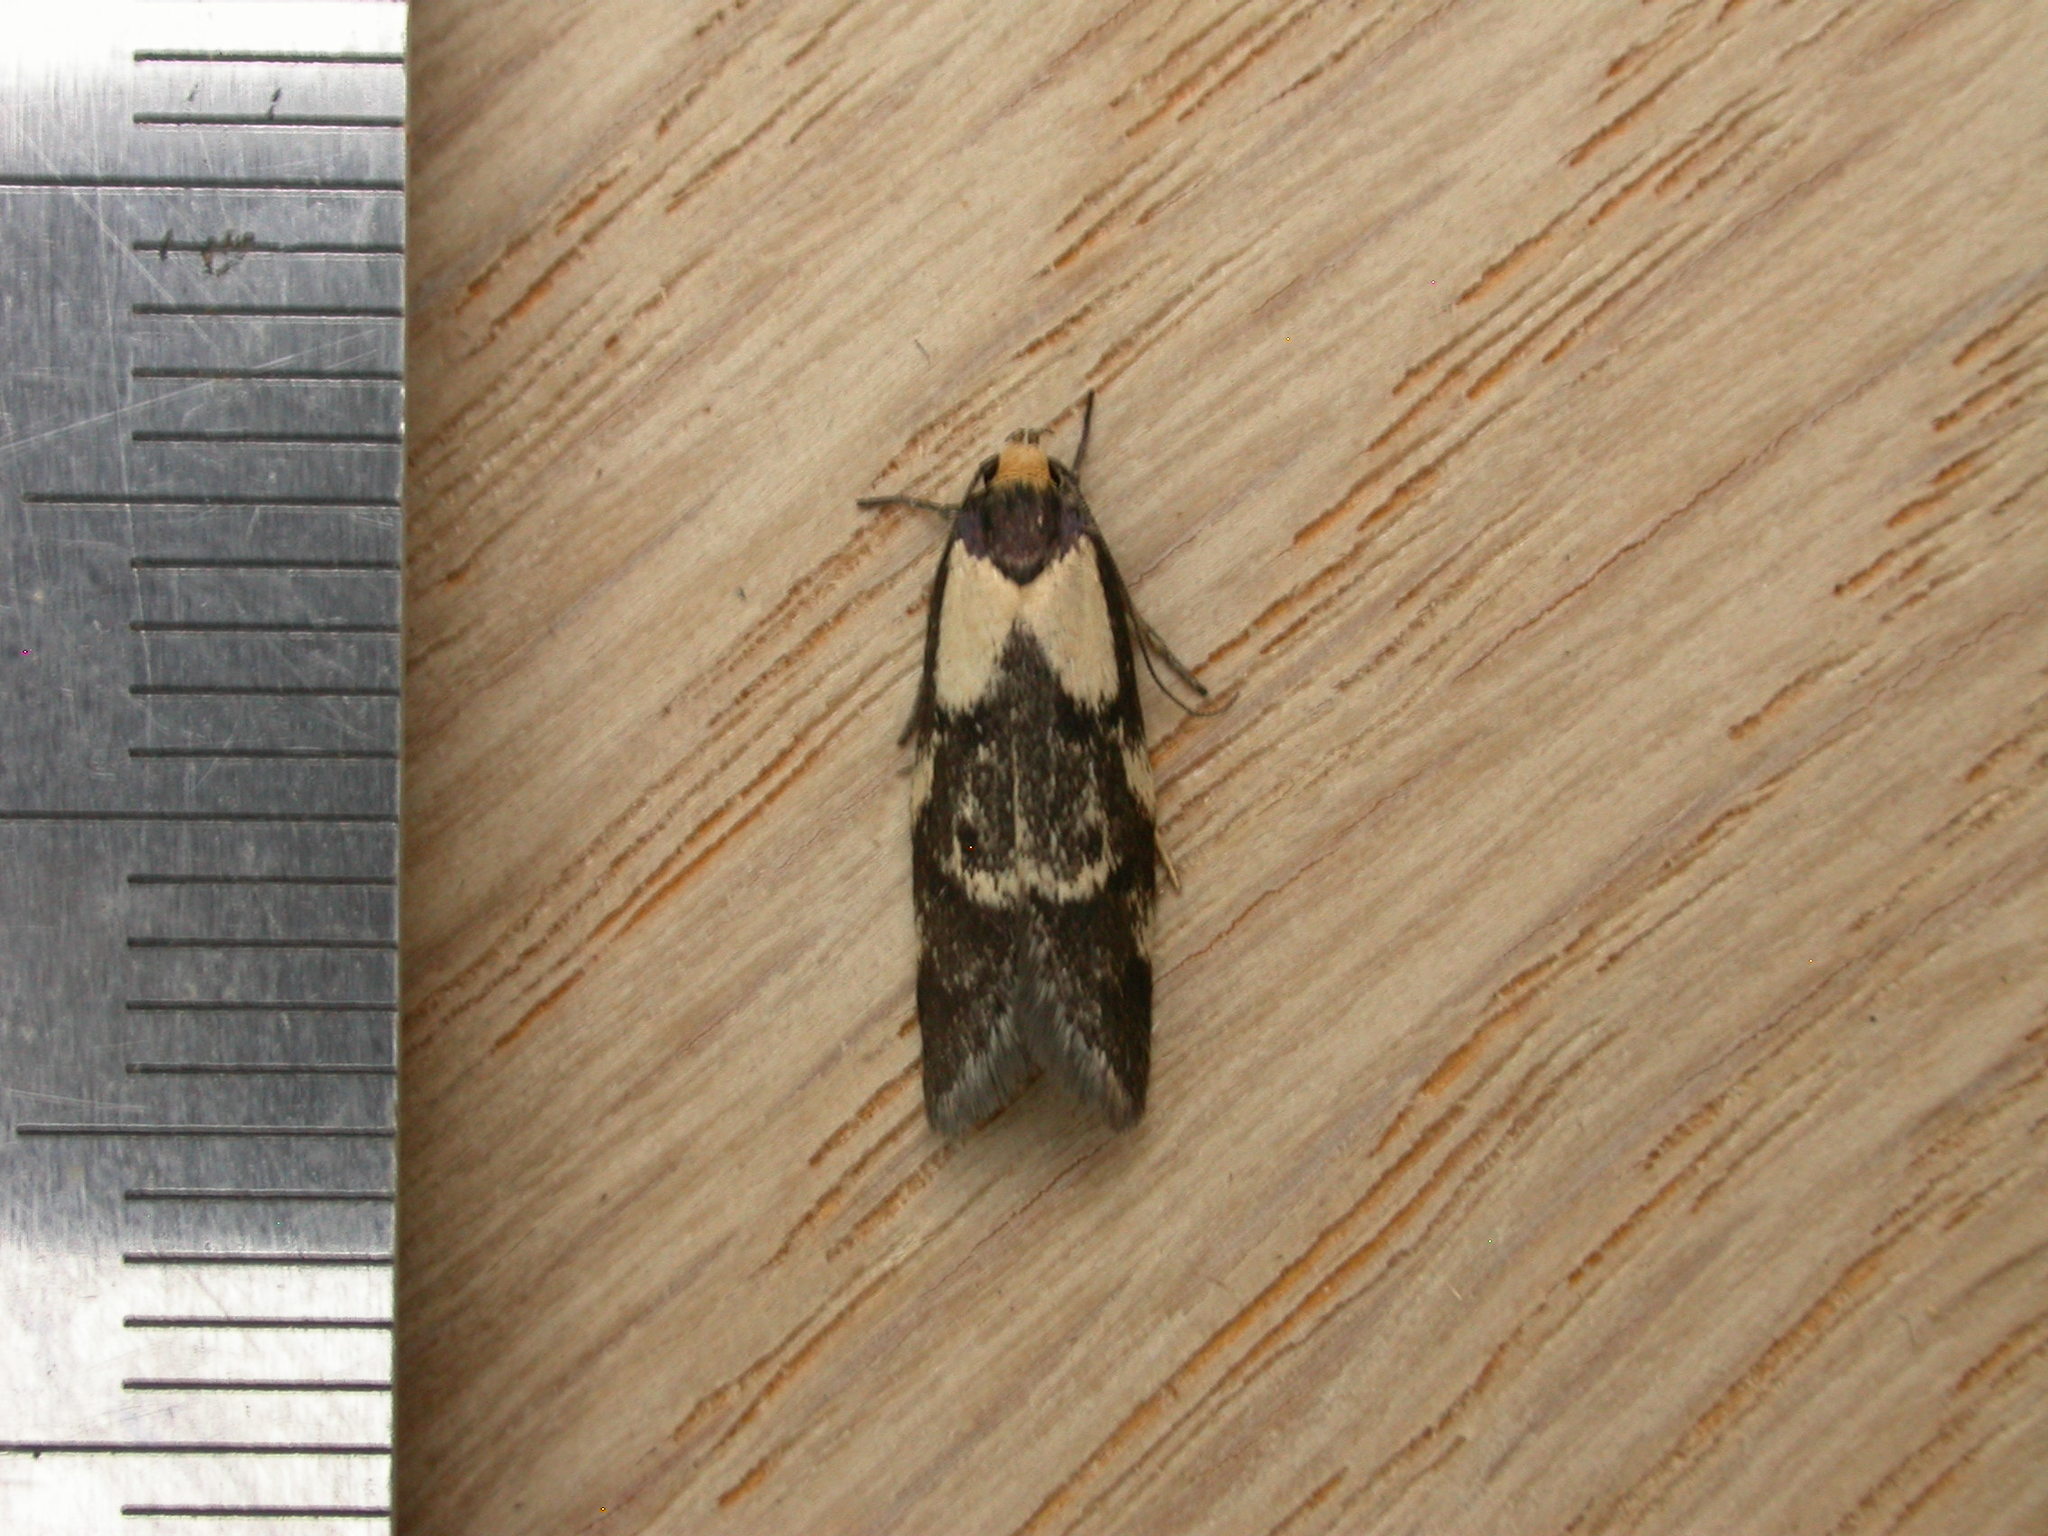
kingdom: Animalia
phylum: Arthropoda
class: Insecta
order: Lepidoptera
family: Oecophoridae
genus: Palimmeces
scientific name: Palimmeces leucopelta
